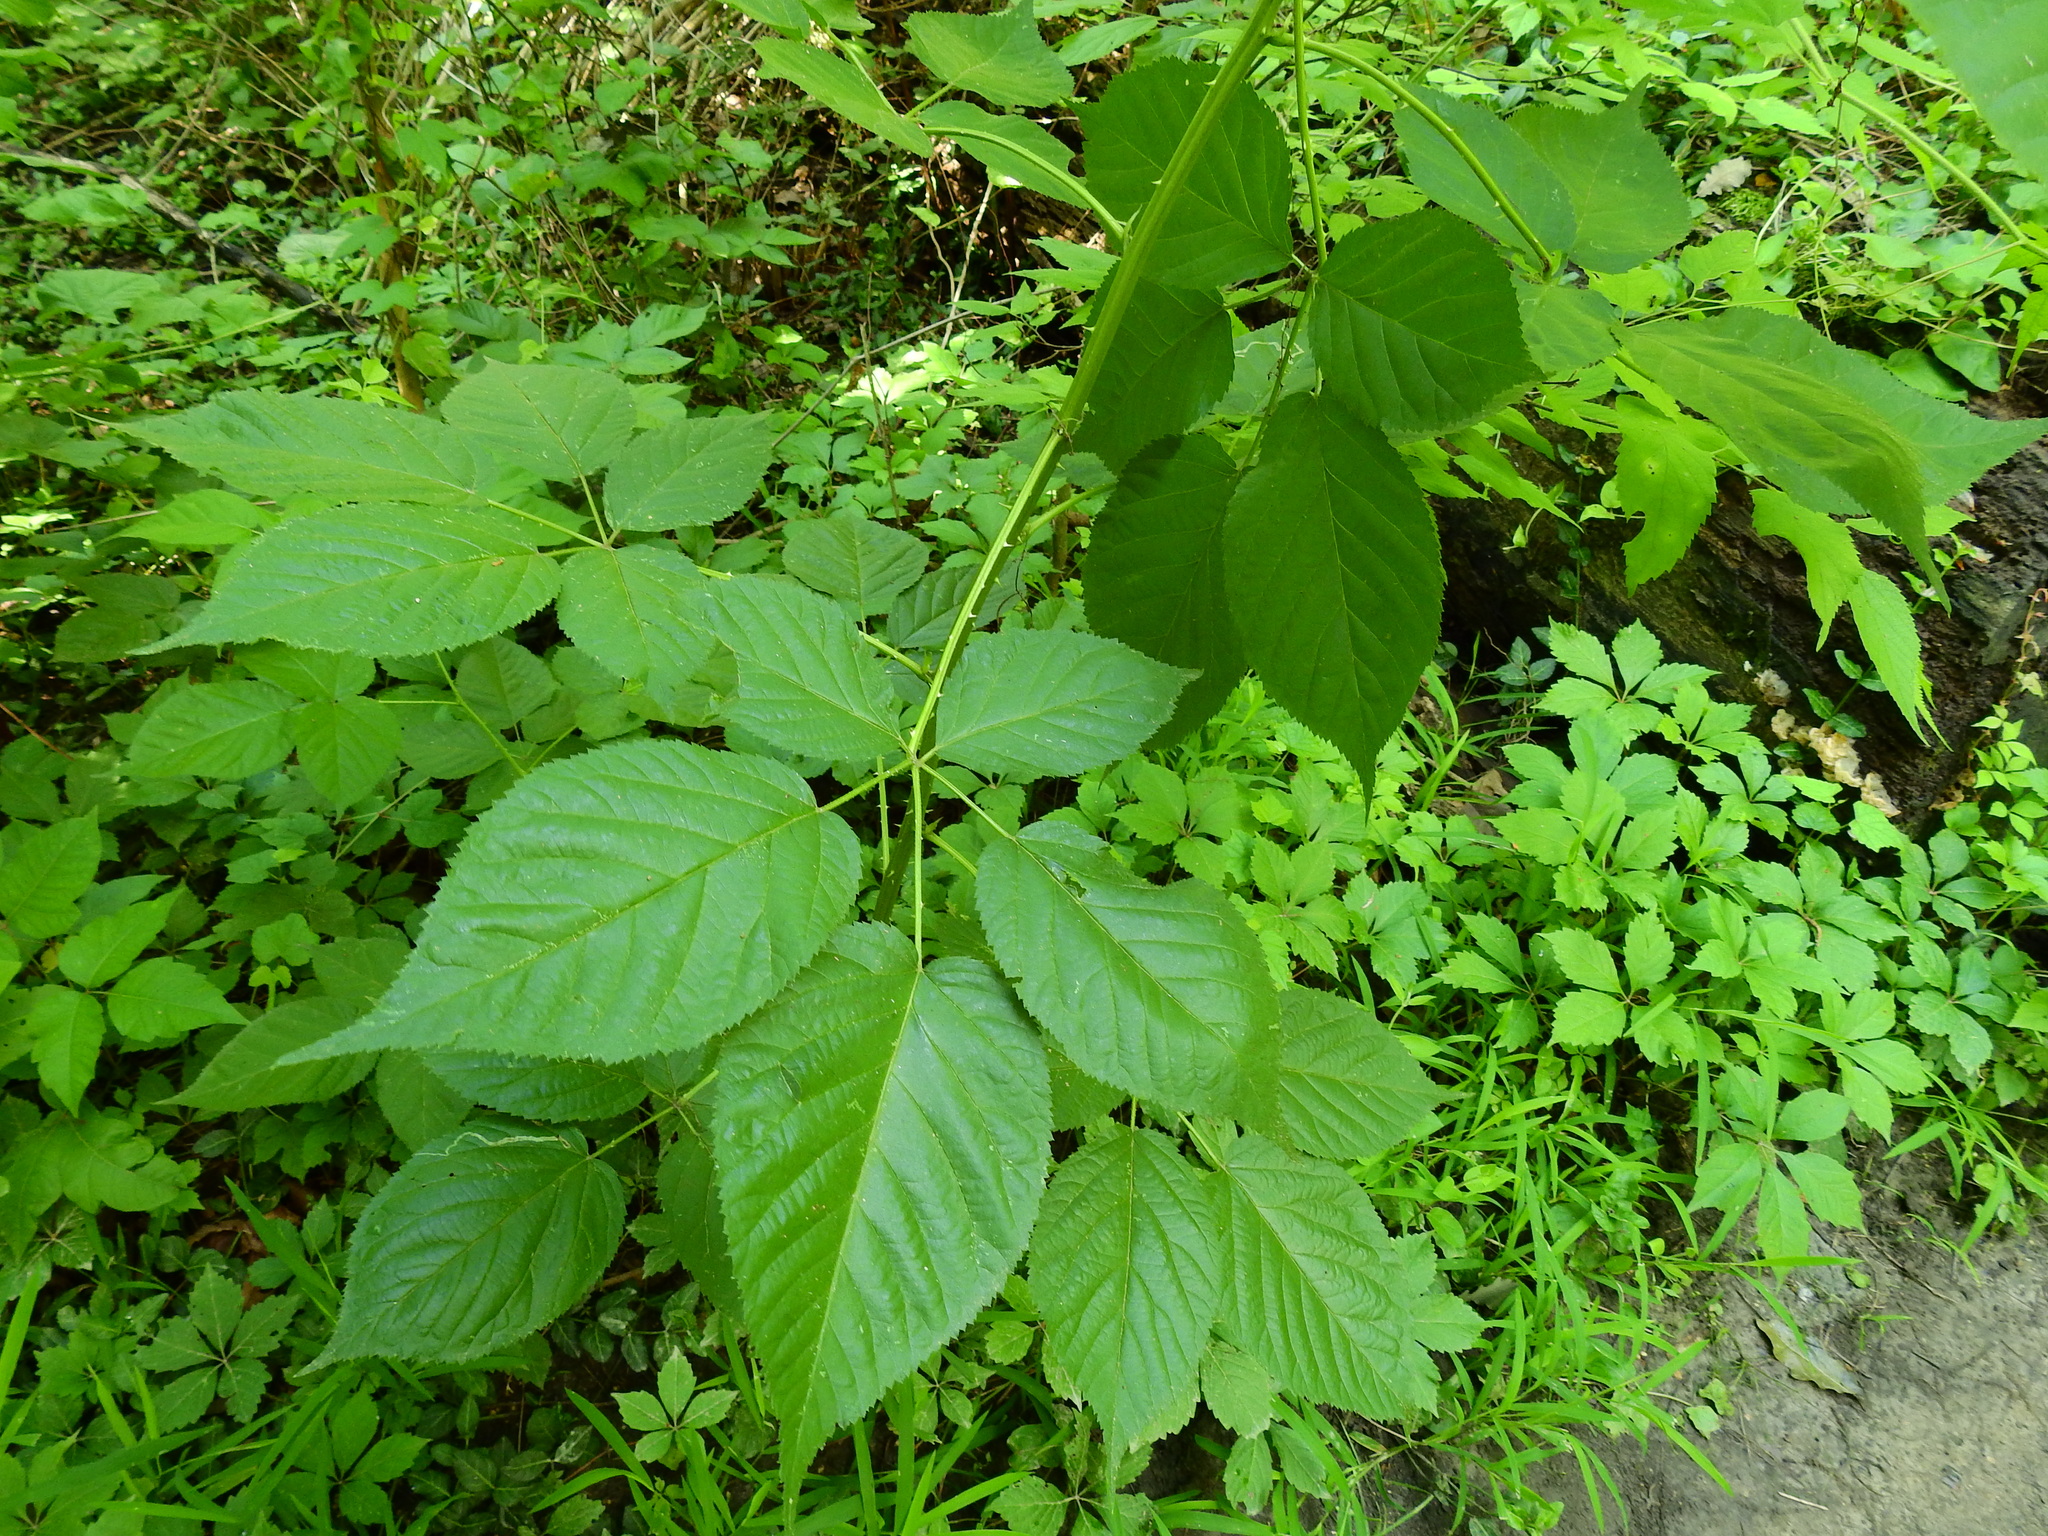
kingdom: Plantae
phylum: Tracheophyta
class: Magnoliopsida
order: Rosales
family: Rosaceae
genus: Rubus
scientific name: Rubus allegheniensis
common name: Allegheny blackberry
